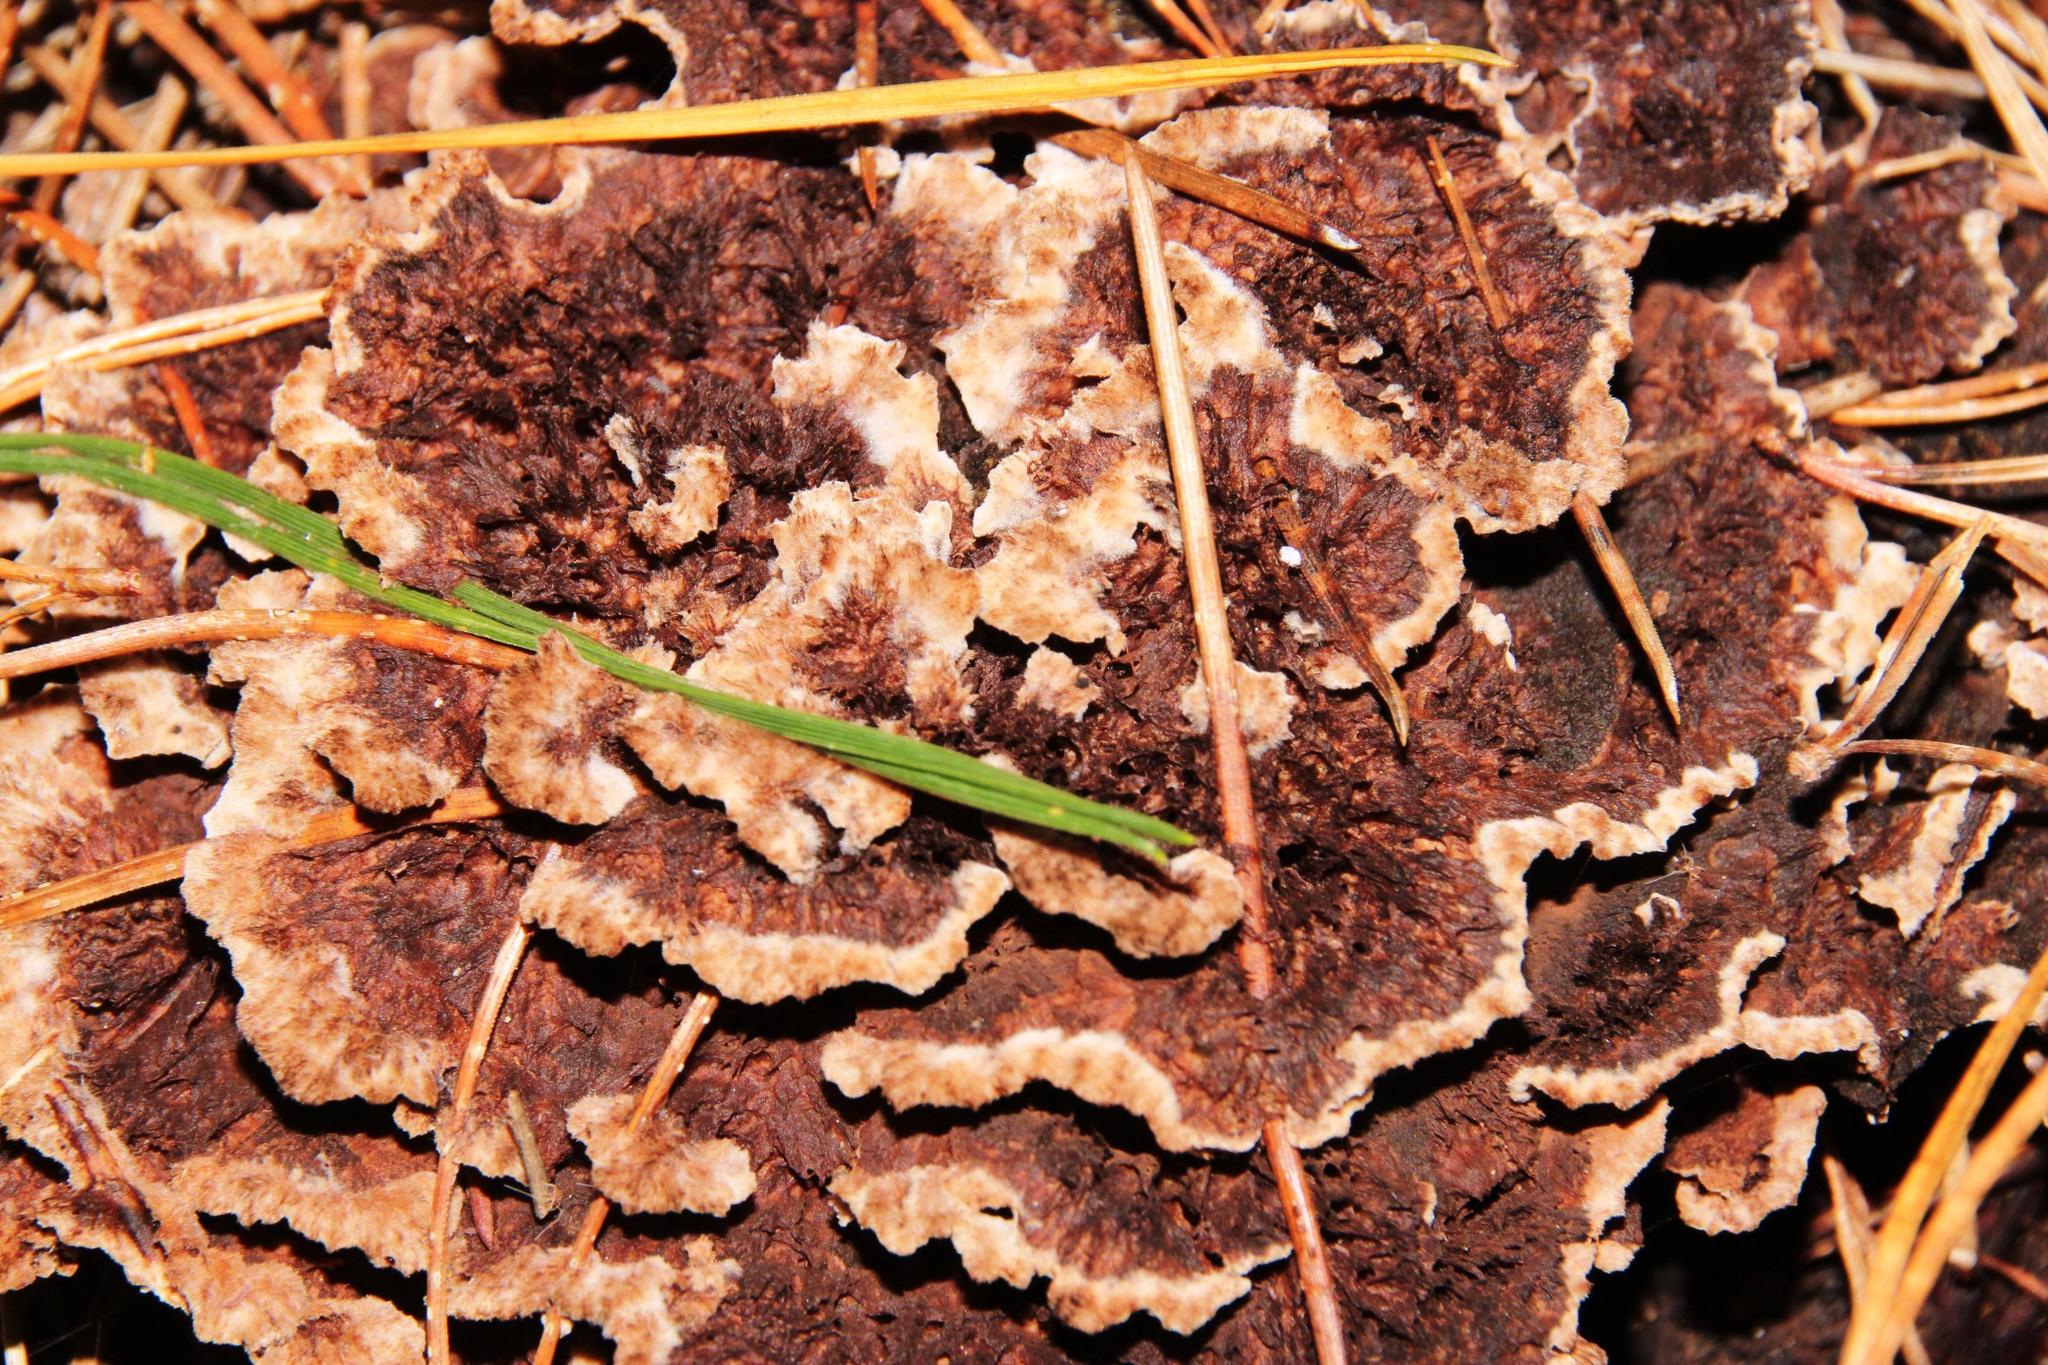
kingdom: Fungi
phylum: Basidiomycota
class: Agaricomycetes
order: Thelephorales
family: Thelephoraceae
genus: Thelephora
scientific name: Thelephora terrestris
